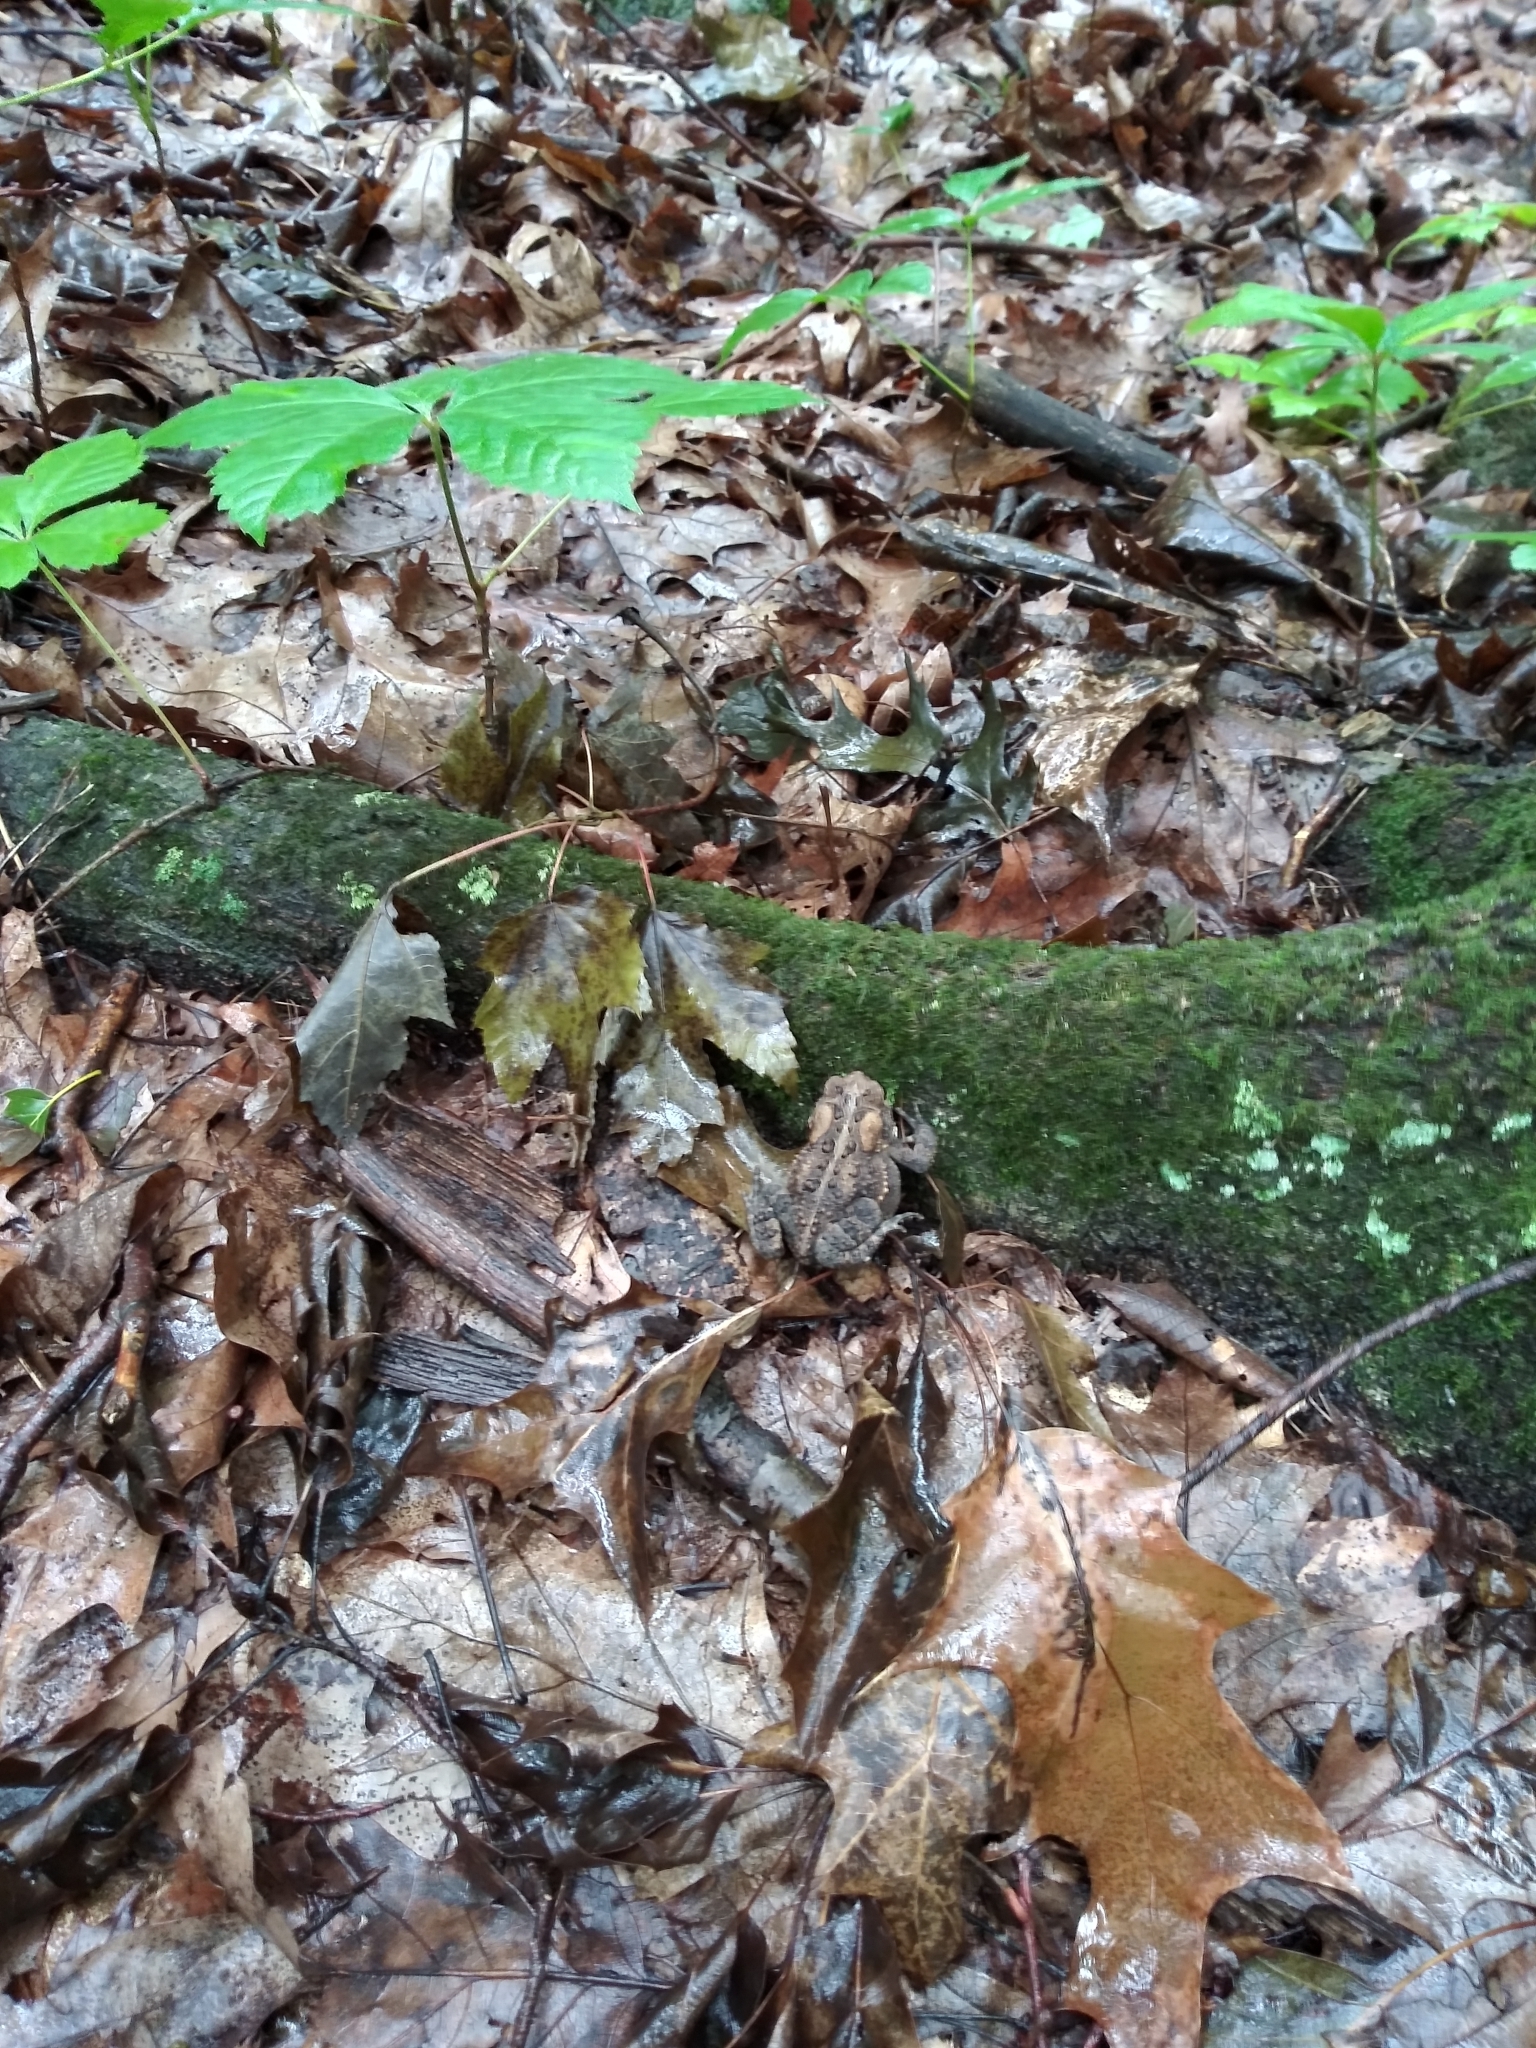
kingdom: Animalia
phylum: Chordata
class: Amphibia
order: Anura
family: Bufonidae
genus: Anaxyrus
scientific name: Anaxyrus americanus
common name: American toad
